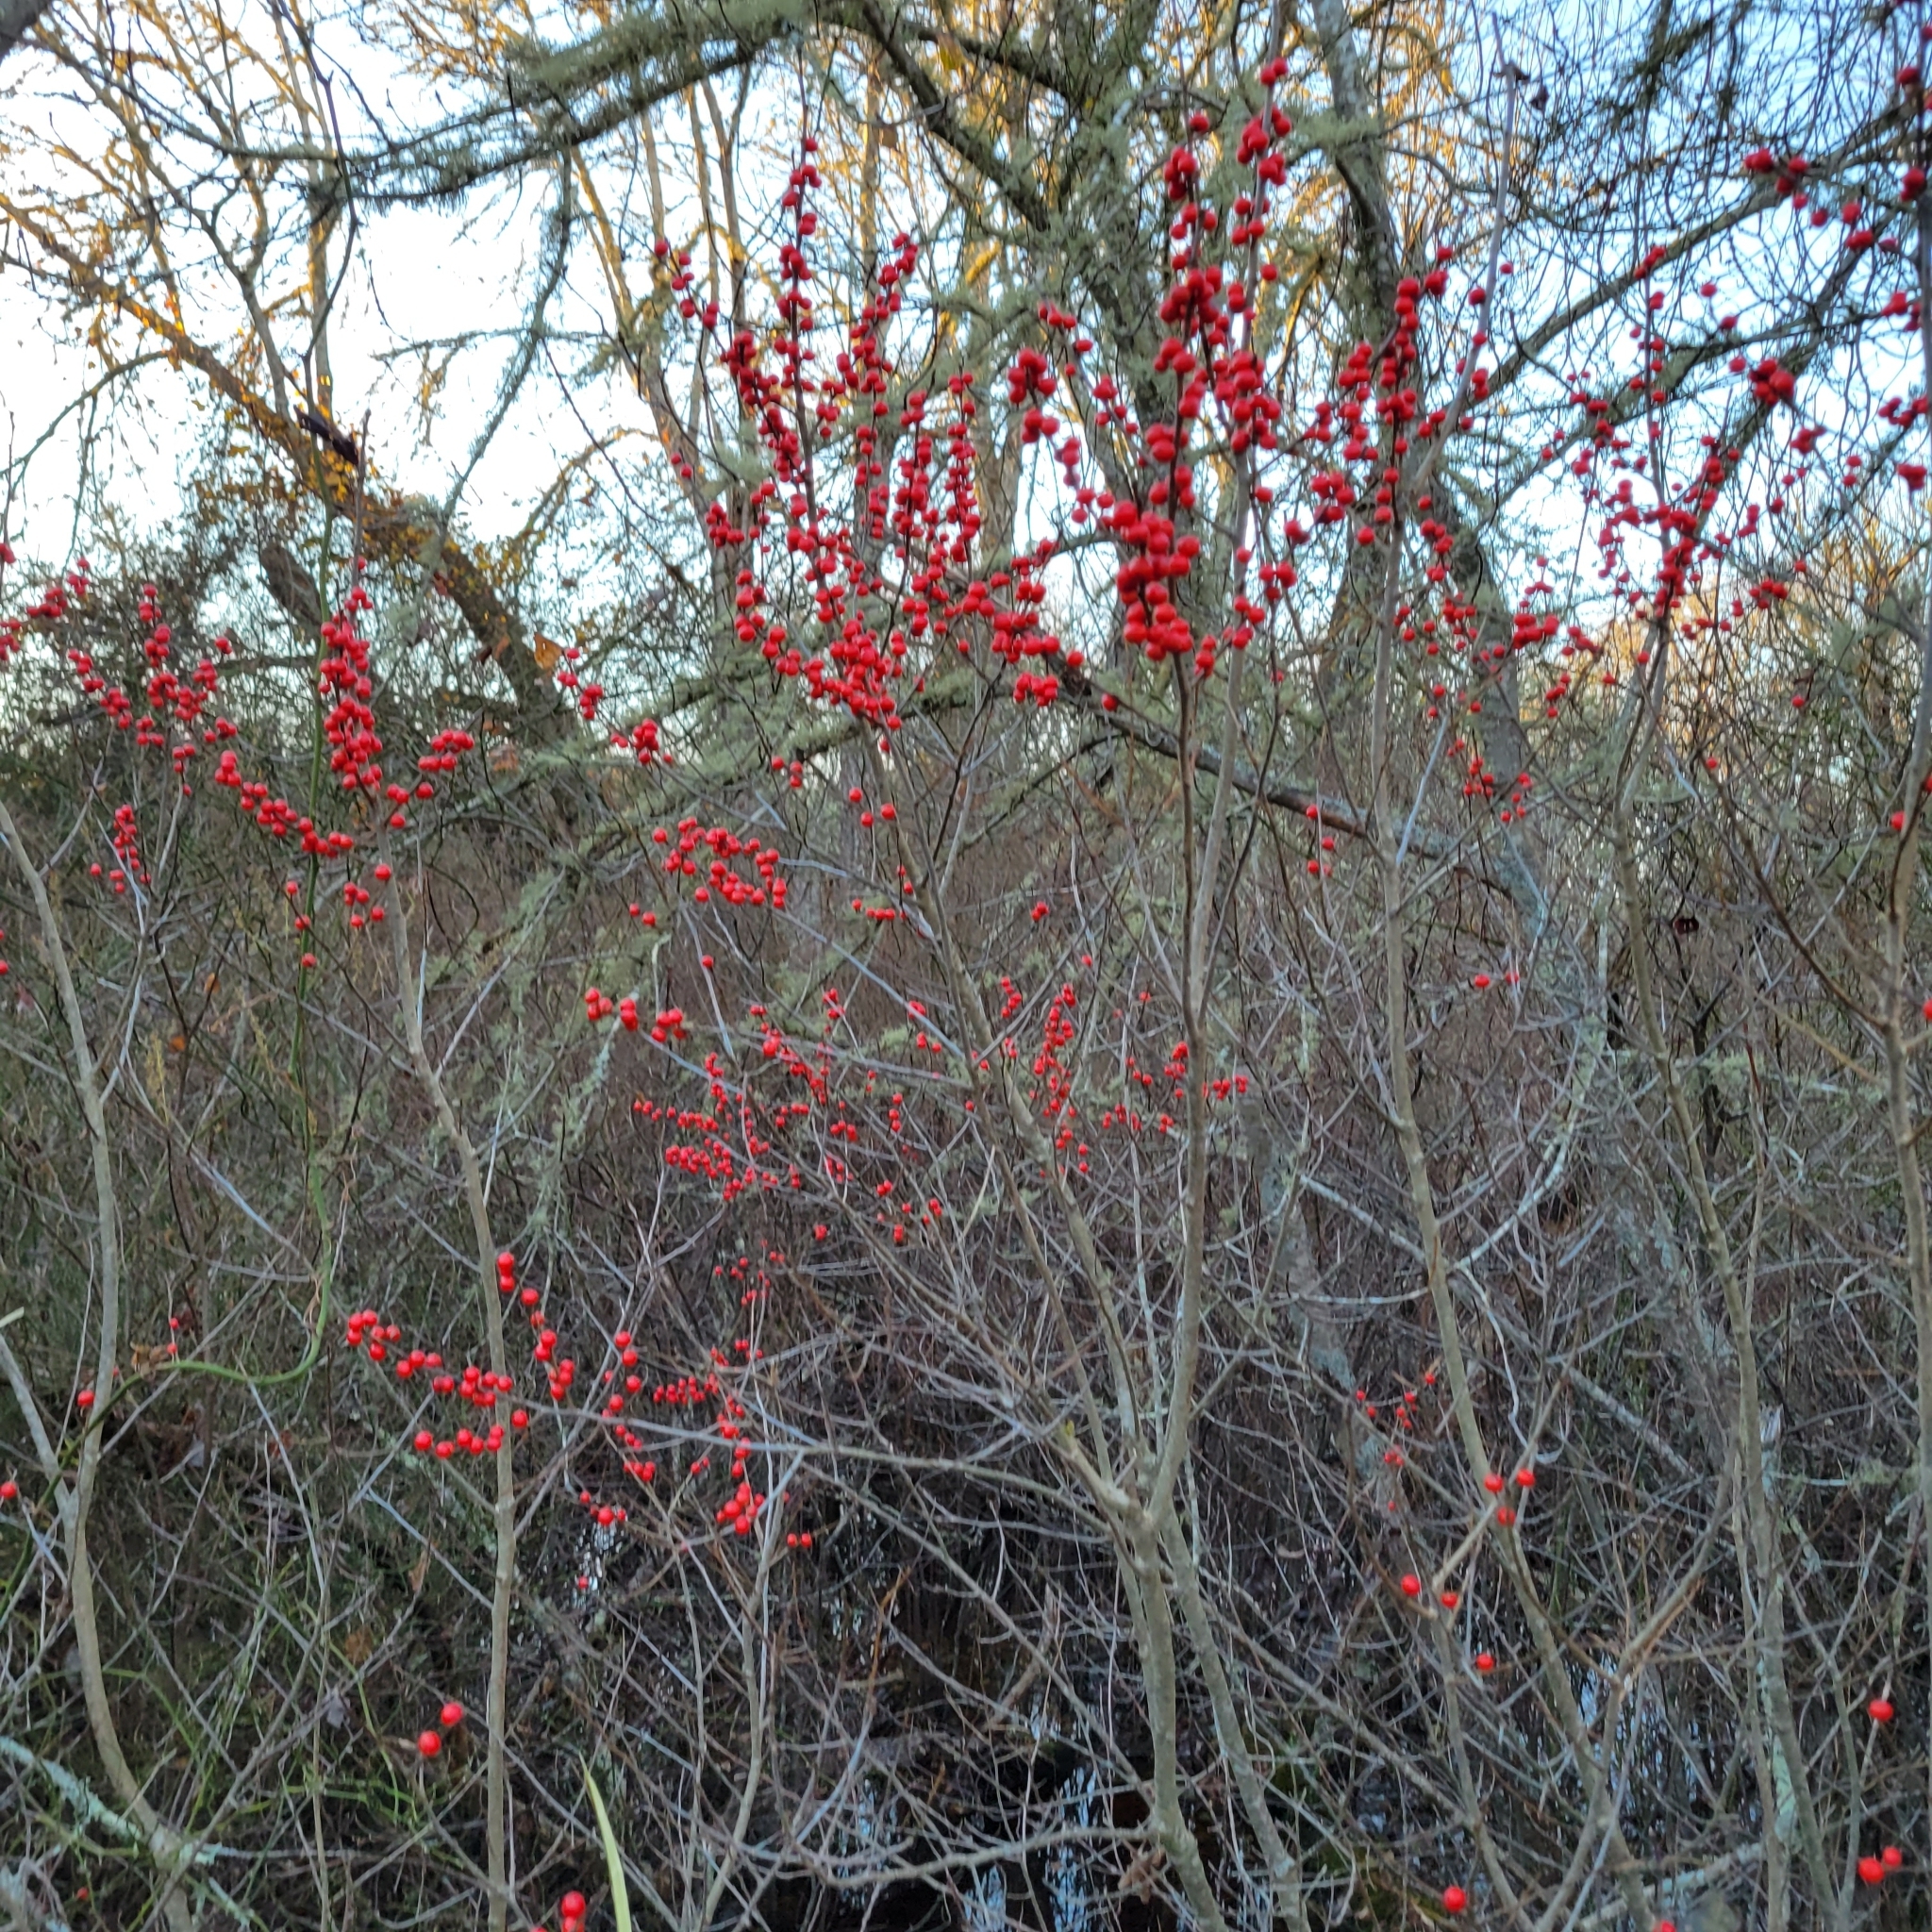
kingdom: Plantae
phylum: Tracheophyta
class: Magnoliopsida
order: Aquifoliales
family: Aquifoliaceae
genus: Ilex
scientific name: Ilex verticillata
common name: Virginia winterberry
